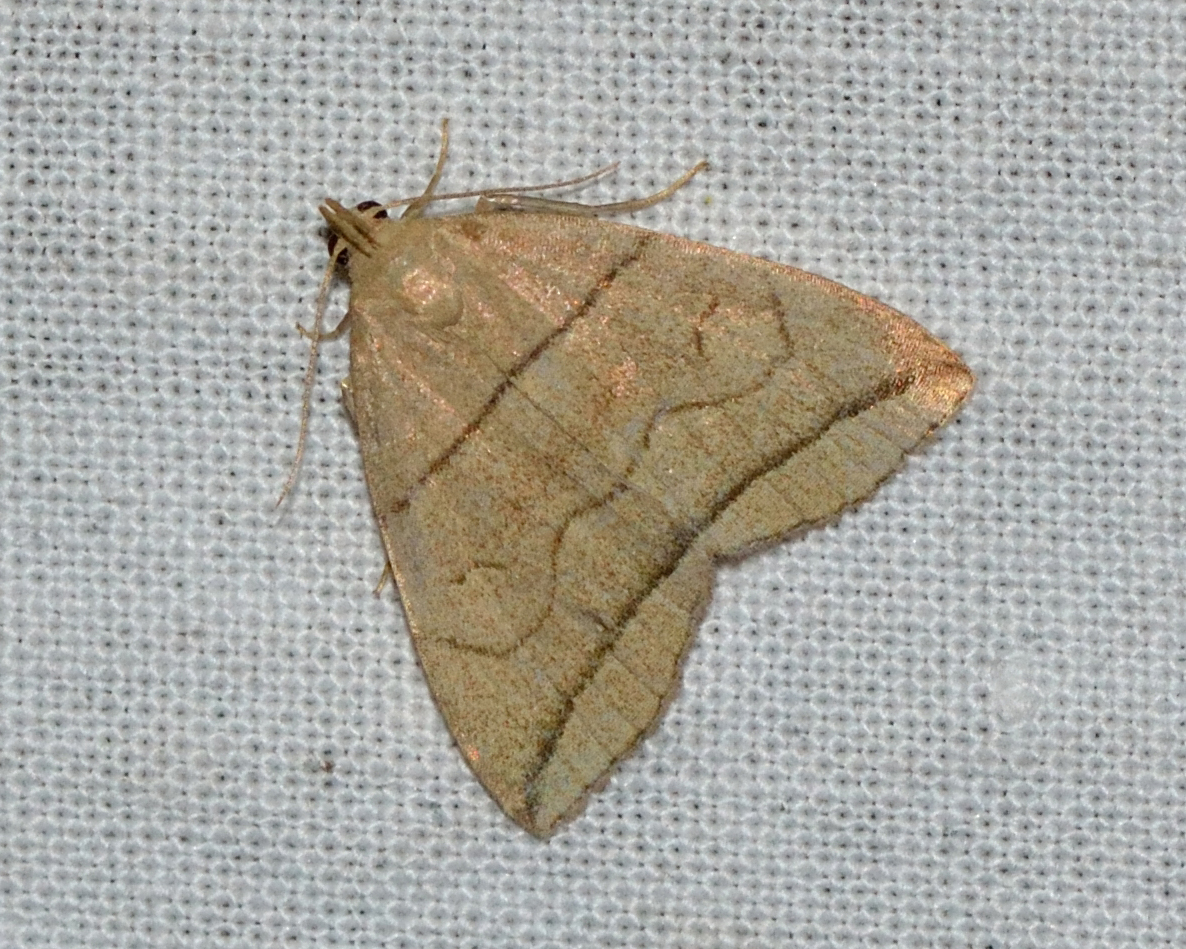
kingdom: Animalia
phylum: Arthropoda
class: Insecta
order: Lepidoptera
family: Erebidae
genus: Herminia
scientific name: Herminia grisealis
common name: Small fan-foot
